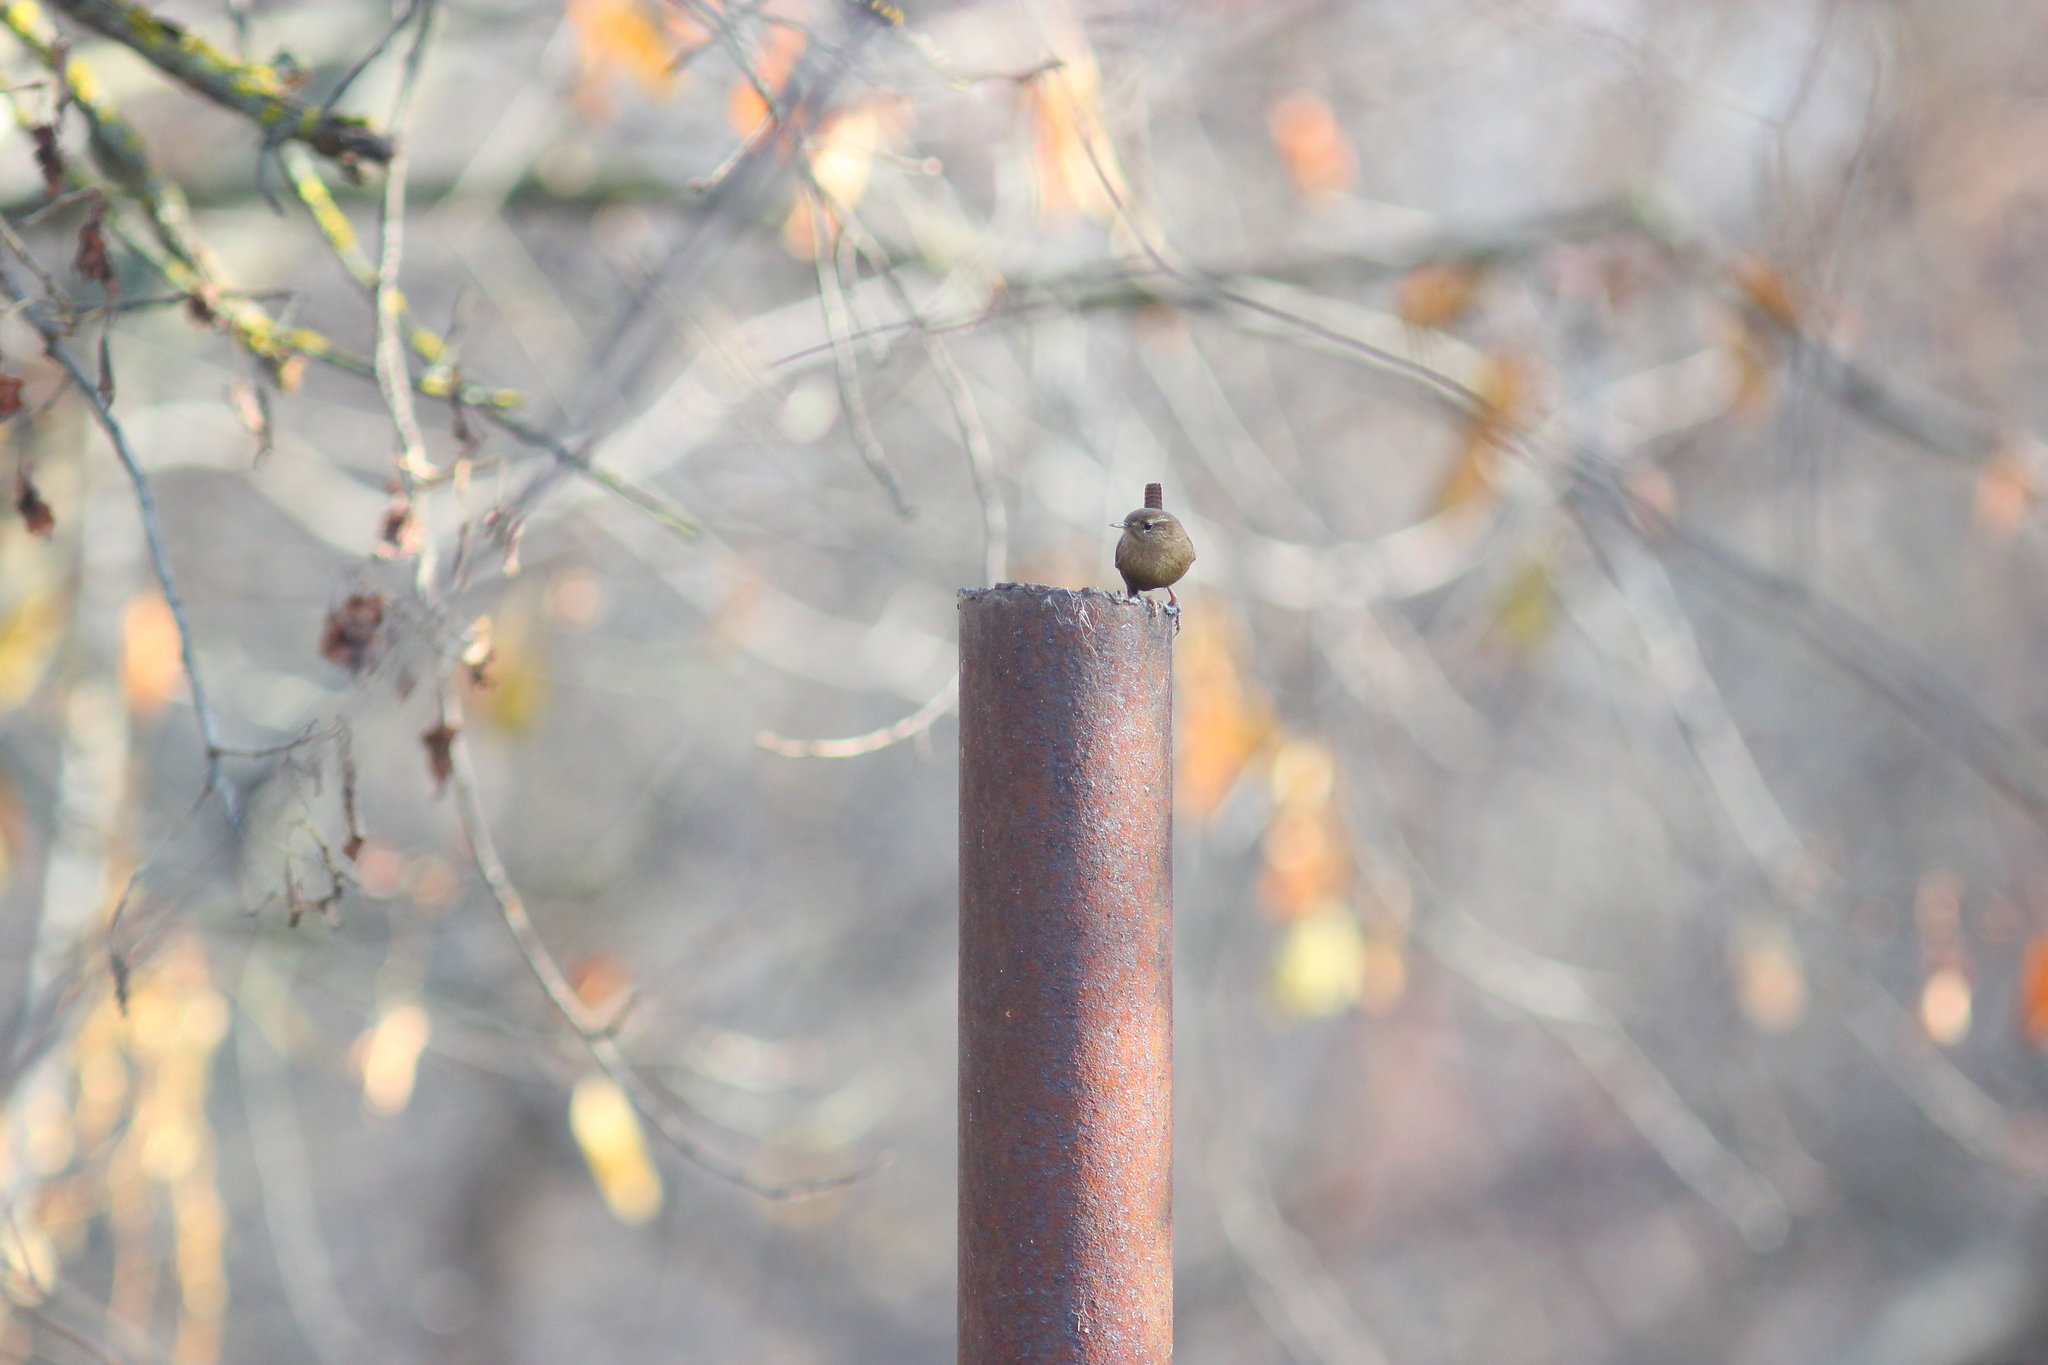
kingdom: Animalia
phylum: Chordata
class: Aves
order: Passeriformes
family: Troglodytidae
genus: Troglodytes
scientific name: Troglodytes troglodytes
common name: Eurasian wren
